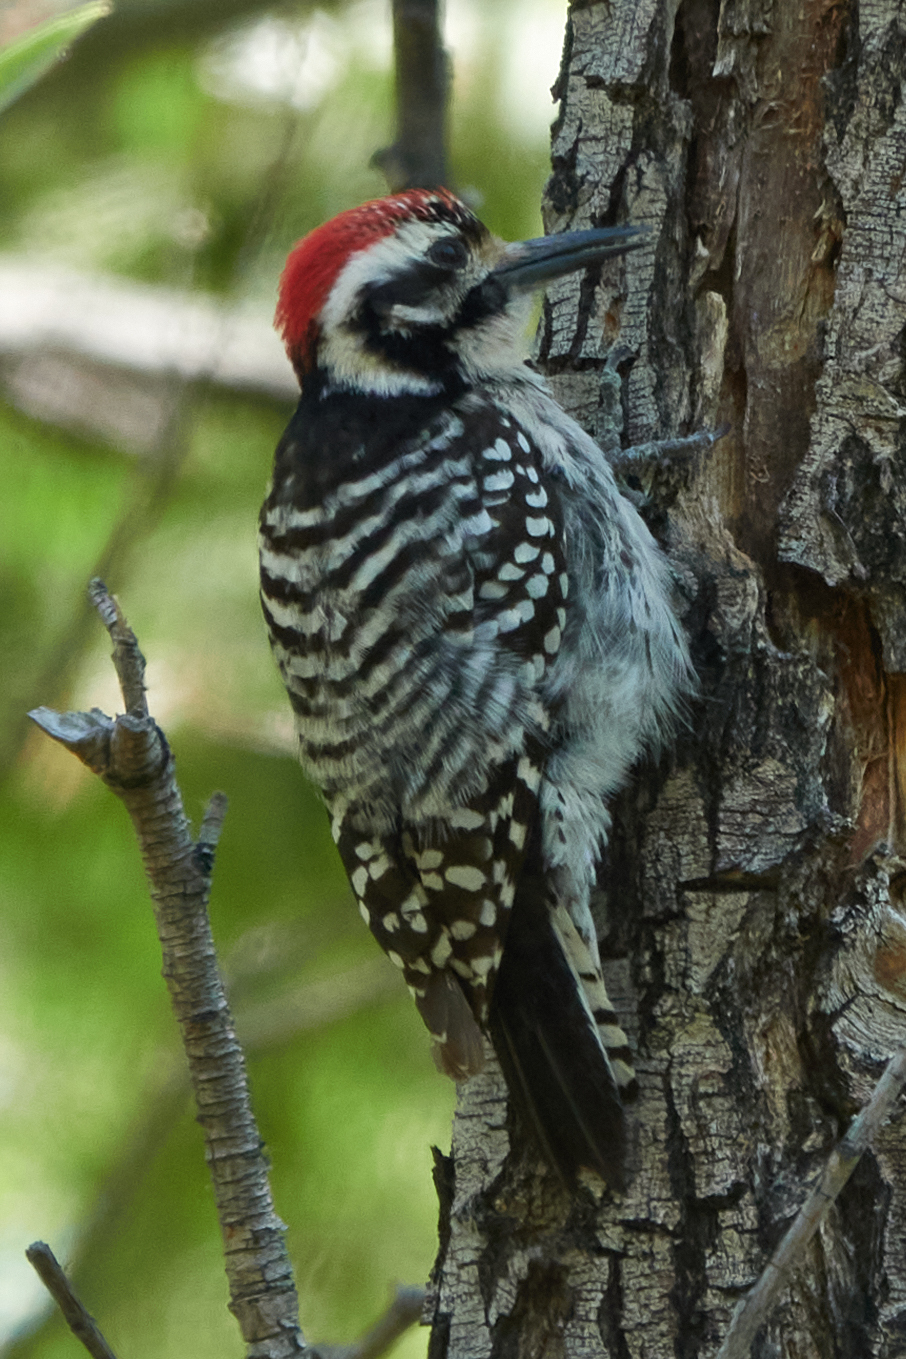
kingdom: Animalia
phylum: Chordata
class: Aves
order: Piciformes
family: Picidae
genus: Dryobates
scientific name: Dryobates scalaris
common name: Ladder-backed woodpecker
